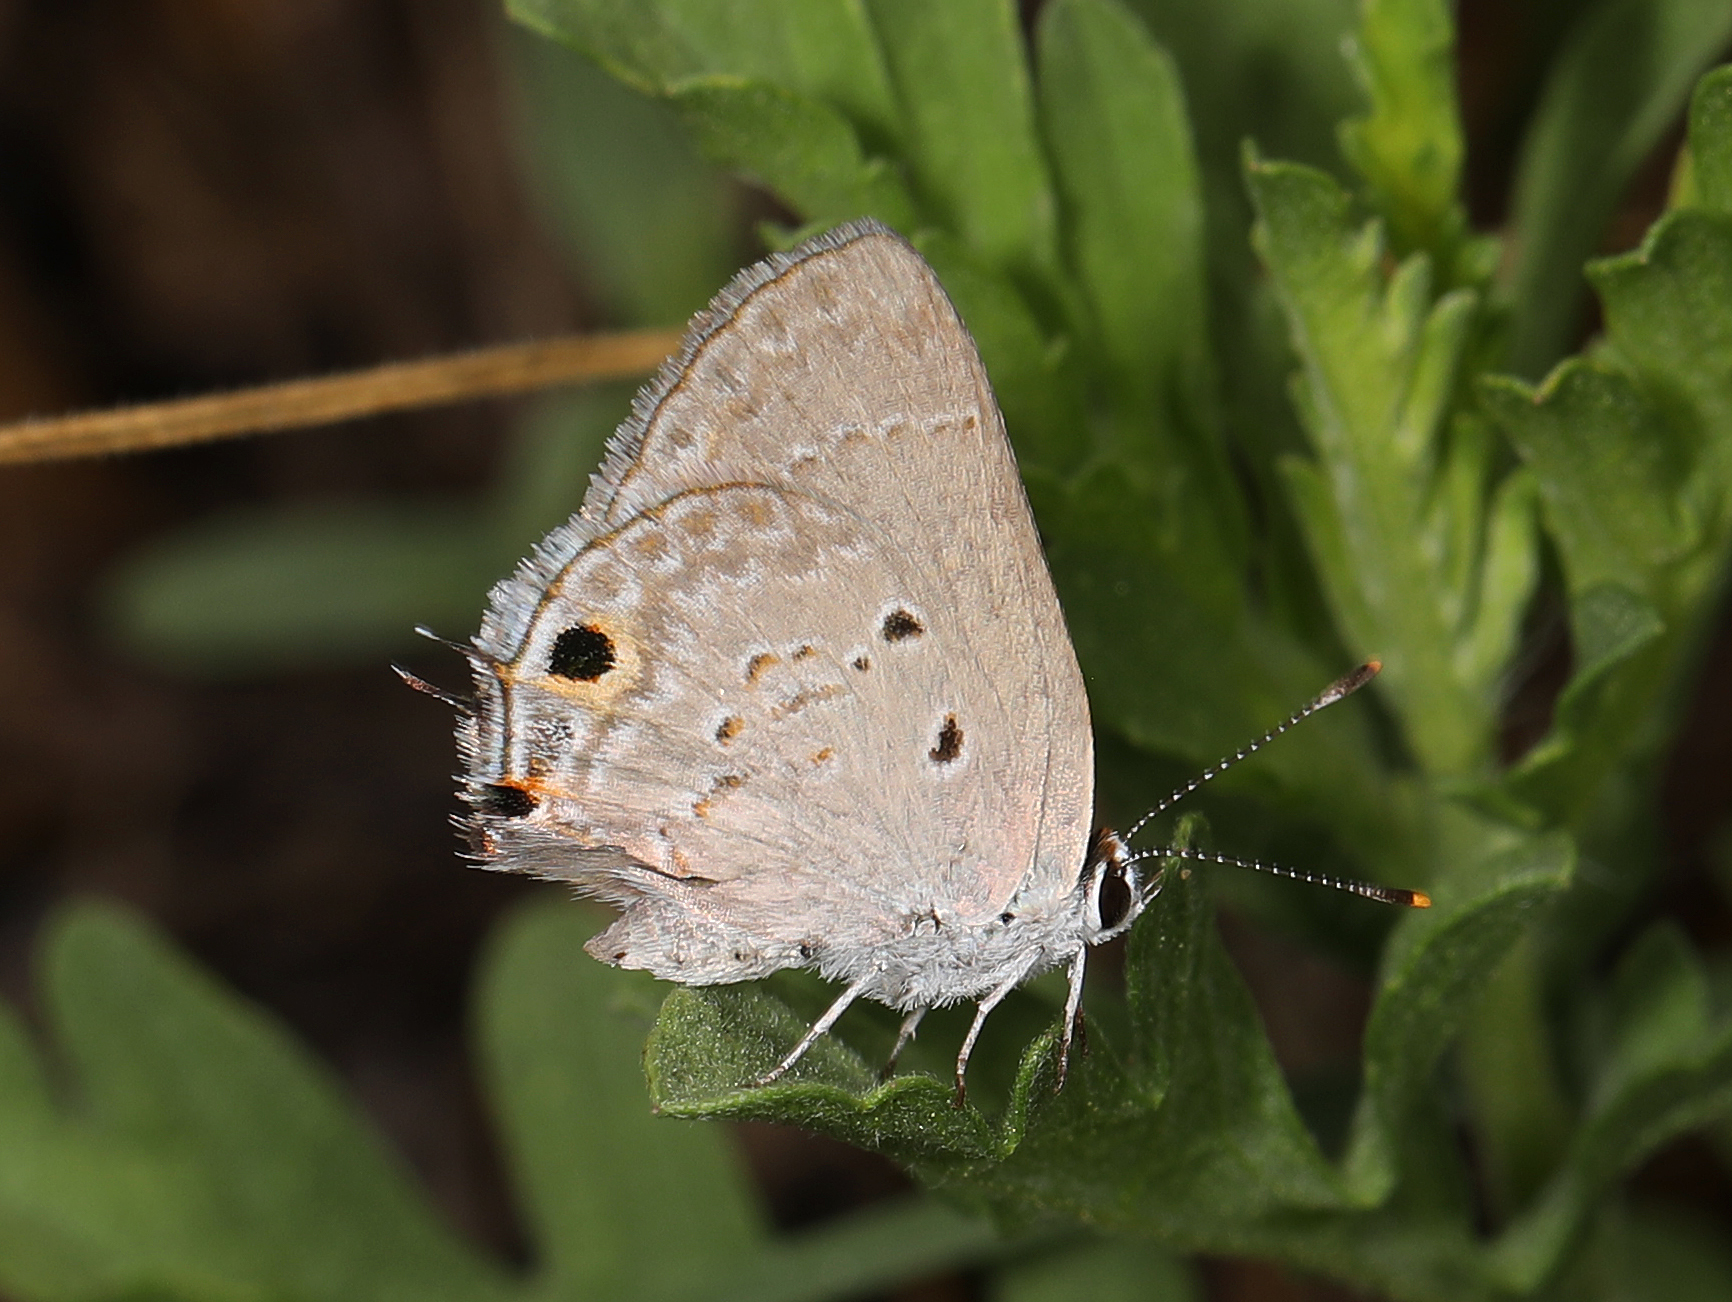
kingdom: Animalia
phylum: Arthropoda
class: Insecta
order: Lepidoptera
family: Lycaenidae
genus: Callicista
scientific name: Callicista columella
